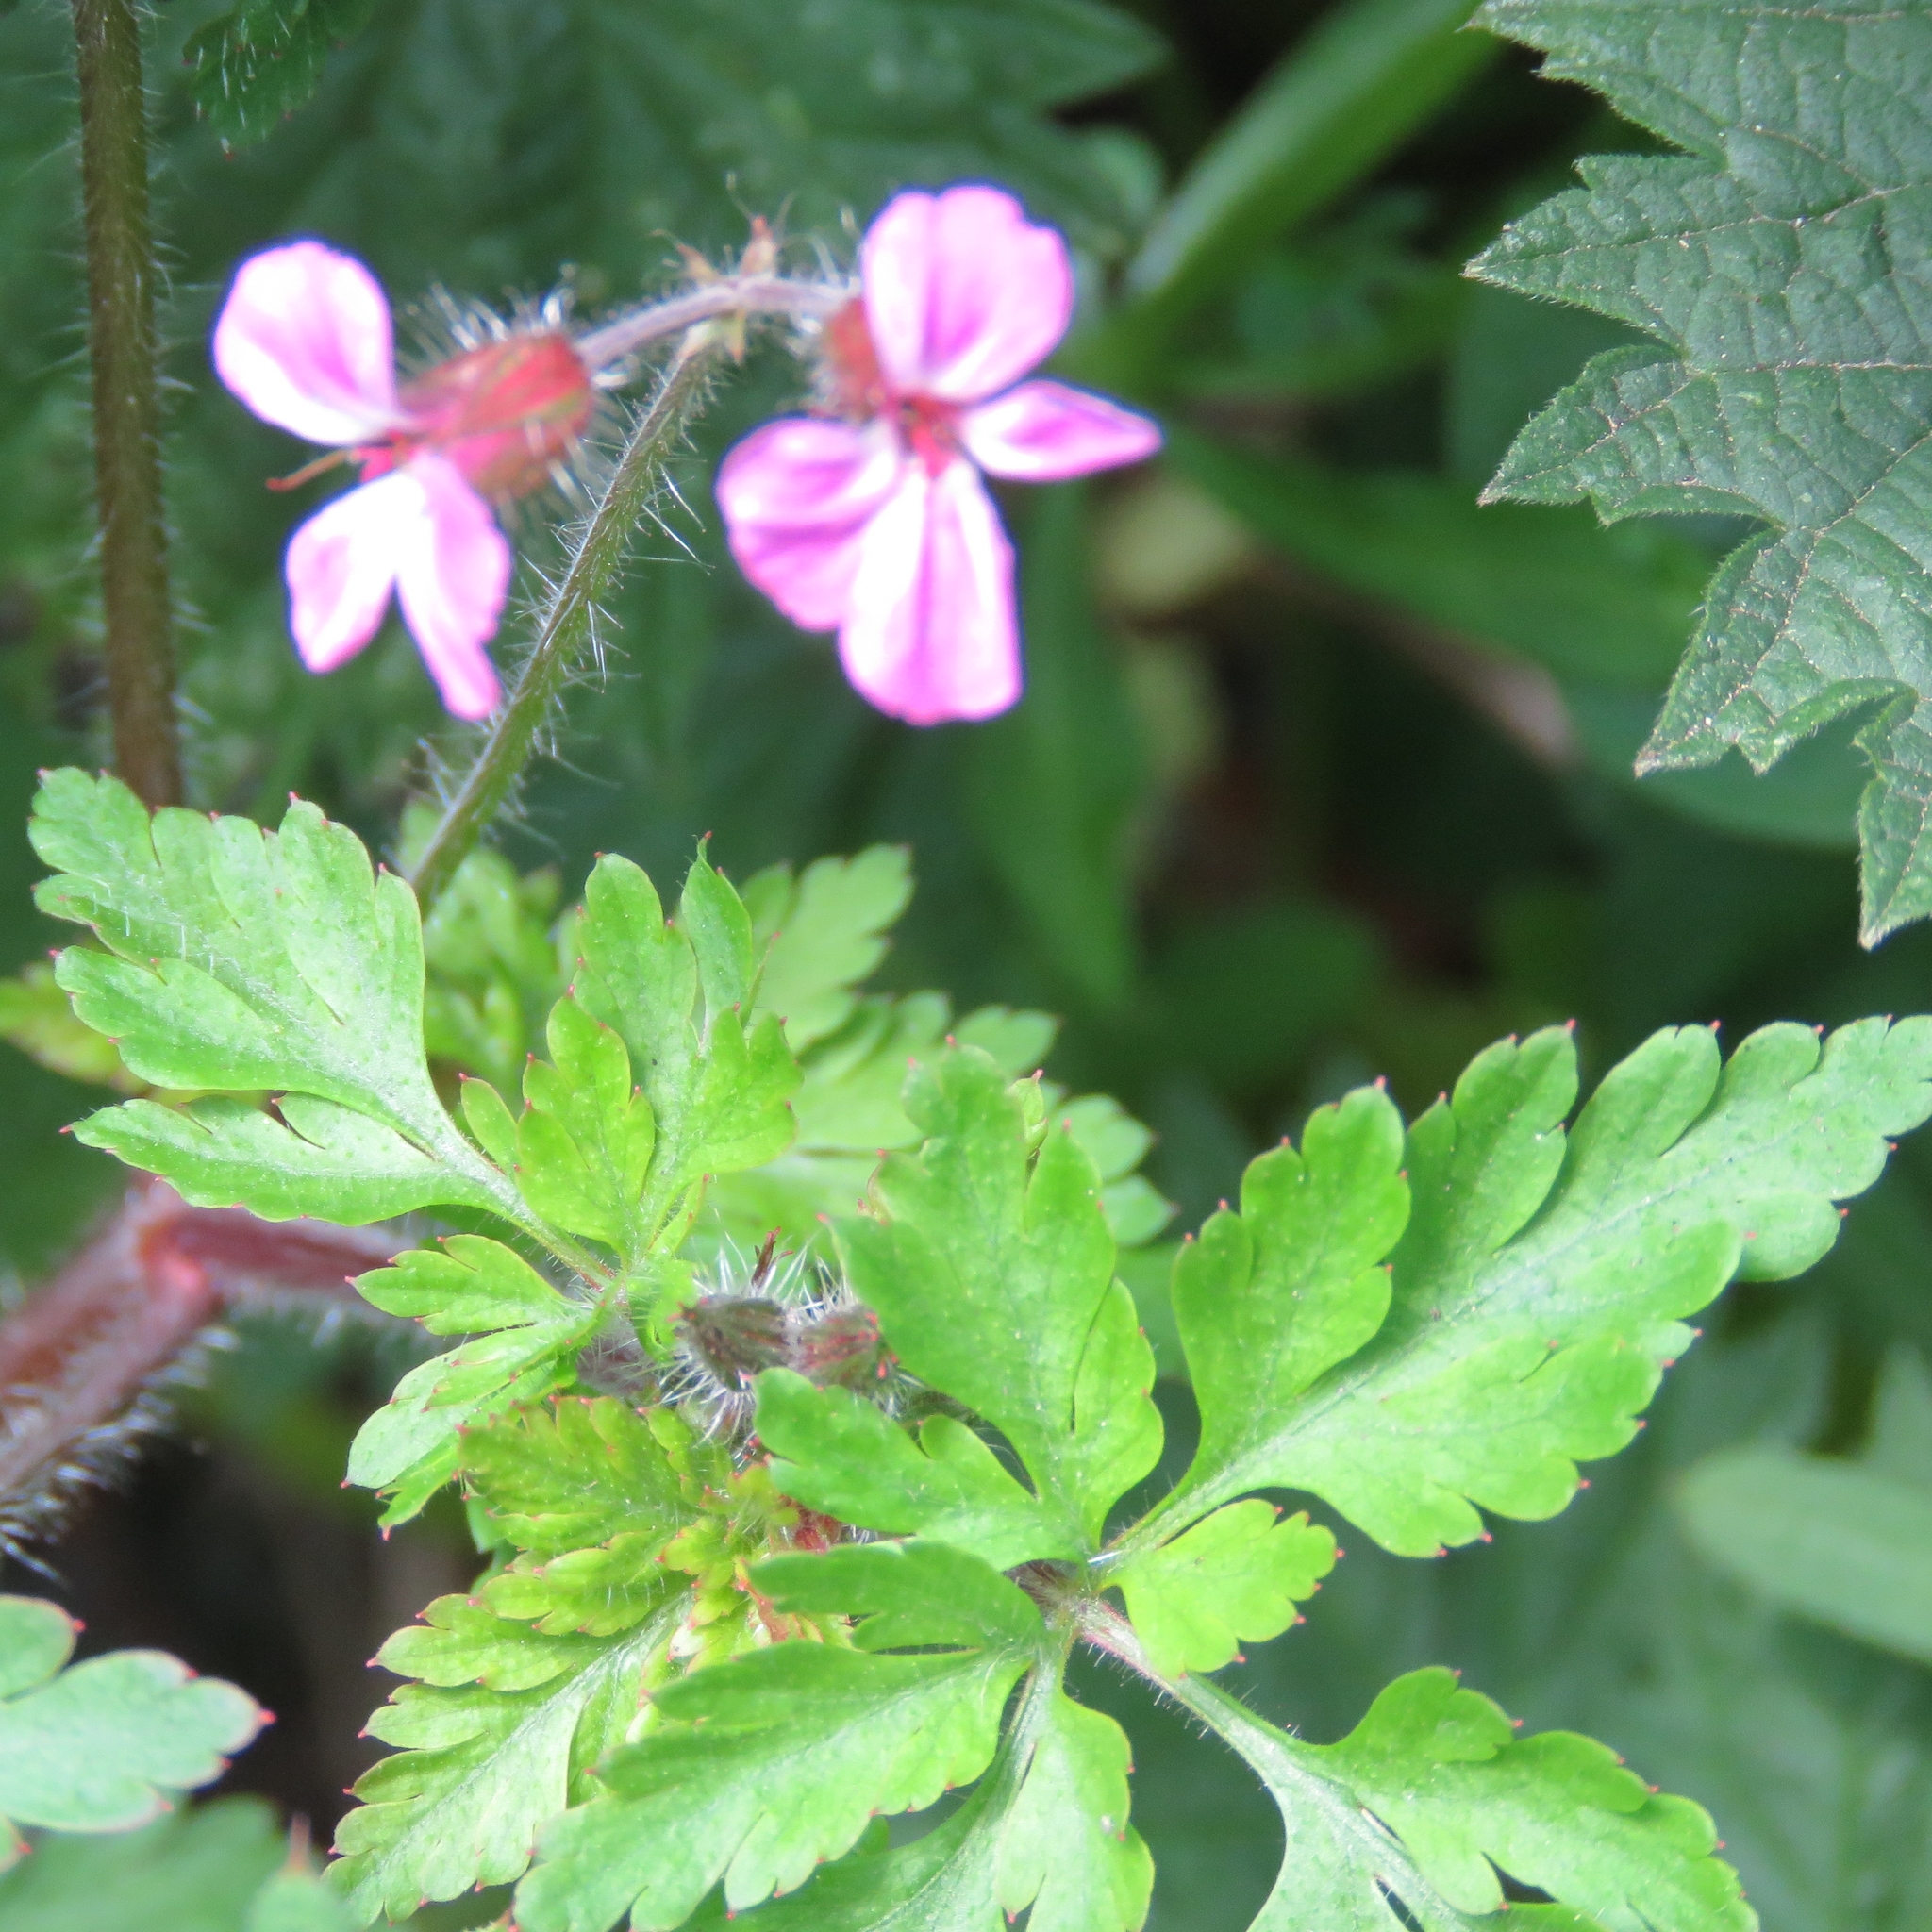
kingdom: Plantae
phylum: Tracheophyta
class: Magnoliopsida
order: Geraniales
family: Geraniaceae
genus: Geranium
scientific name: Geranium robertianum
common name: Herb-robert
